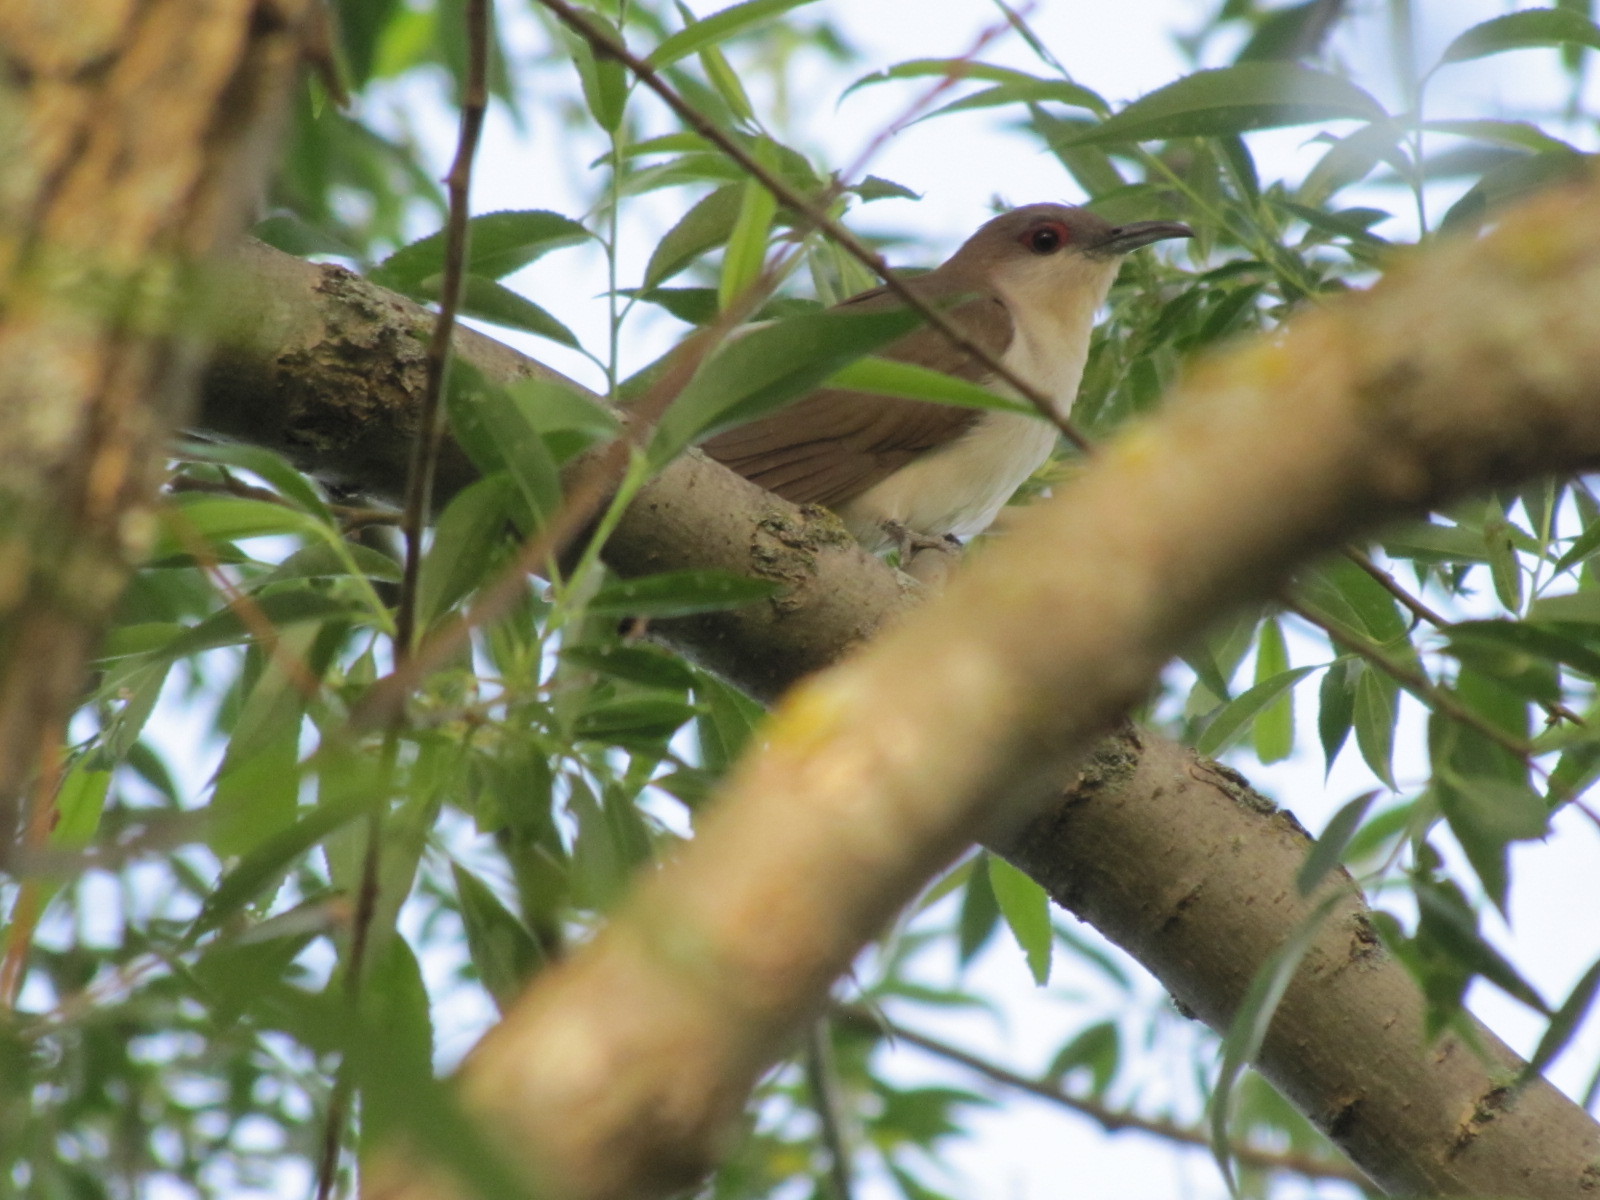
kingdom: Animalia
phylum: Chordata
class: Aves
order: Cuculiformes
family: Cuculidae
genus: Coccyzus
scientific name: Coccyzus erythropthalmus
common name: Black-billed cuckoo
